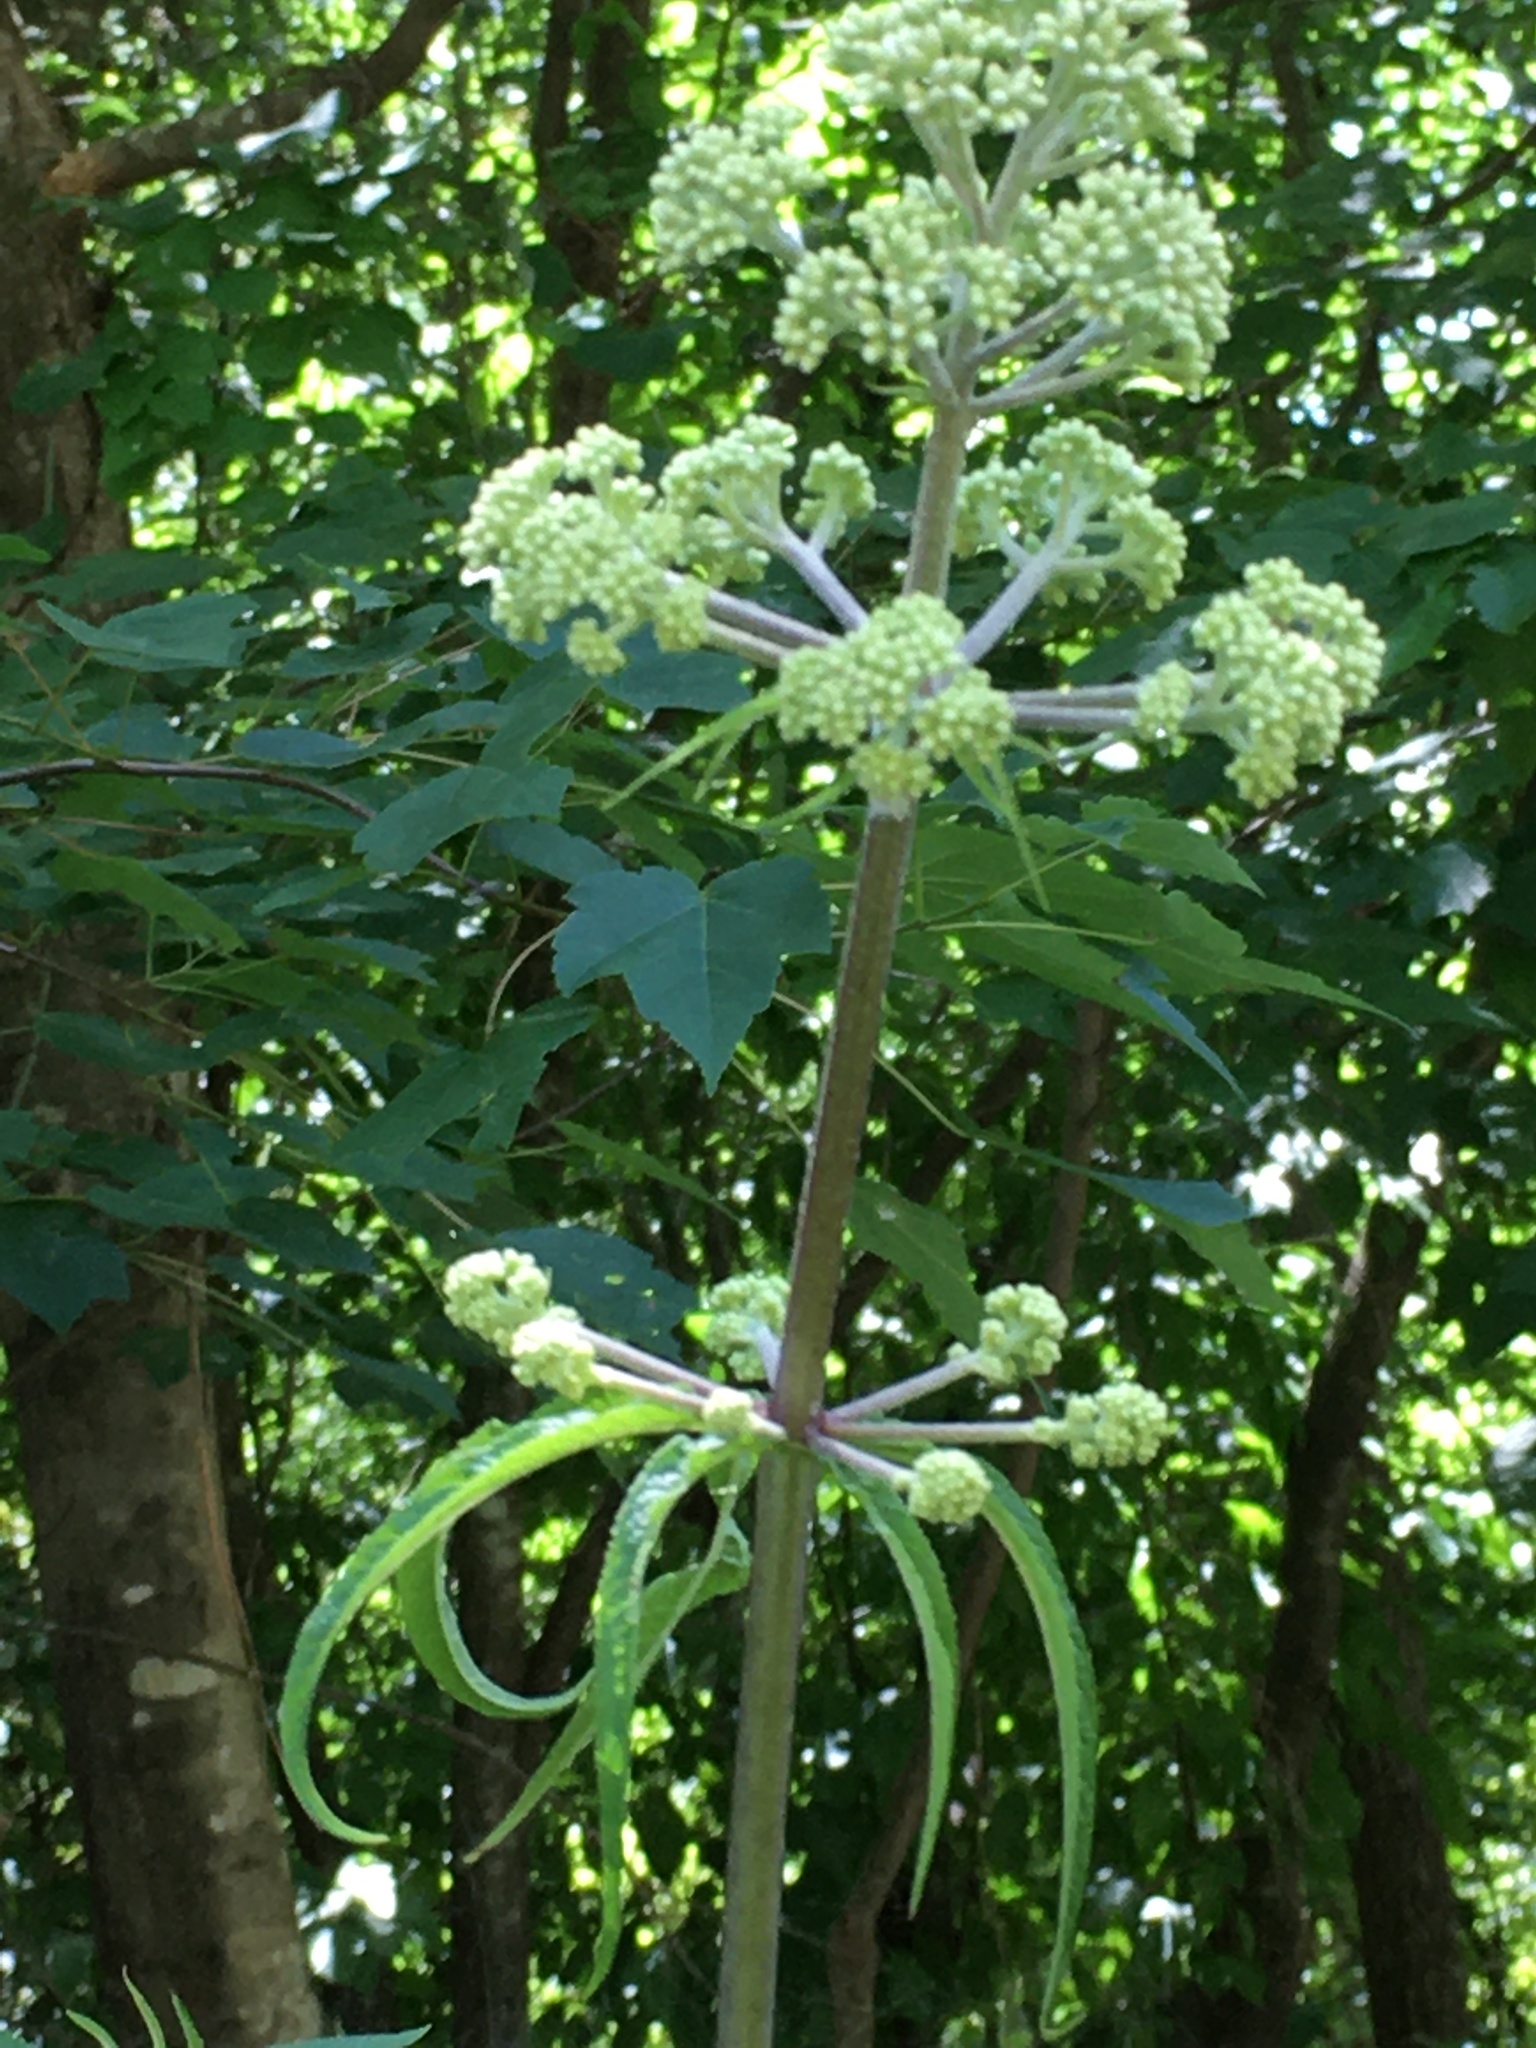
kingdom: Plantae
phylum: Tracheophyta
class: Magnoliopsida
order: Asterales
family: Asteraceae
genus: Eutrochium
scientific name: Eutrochium fistulosum
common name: Trumpetweed
